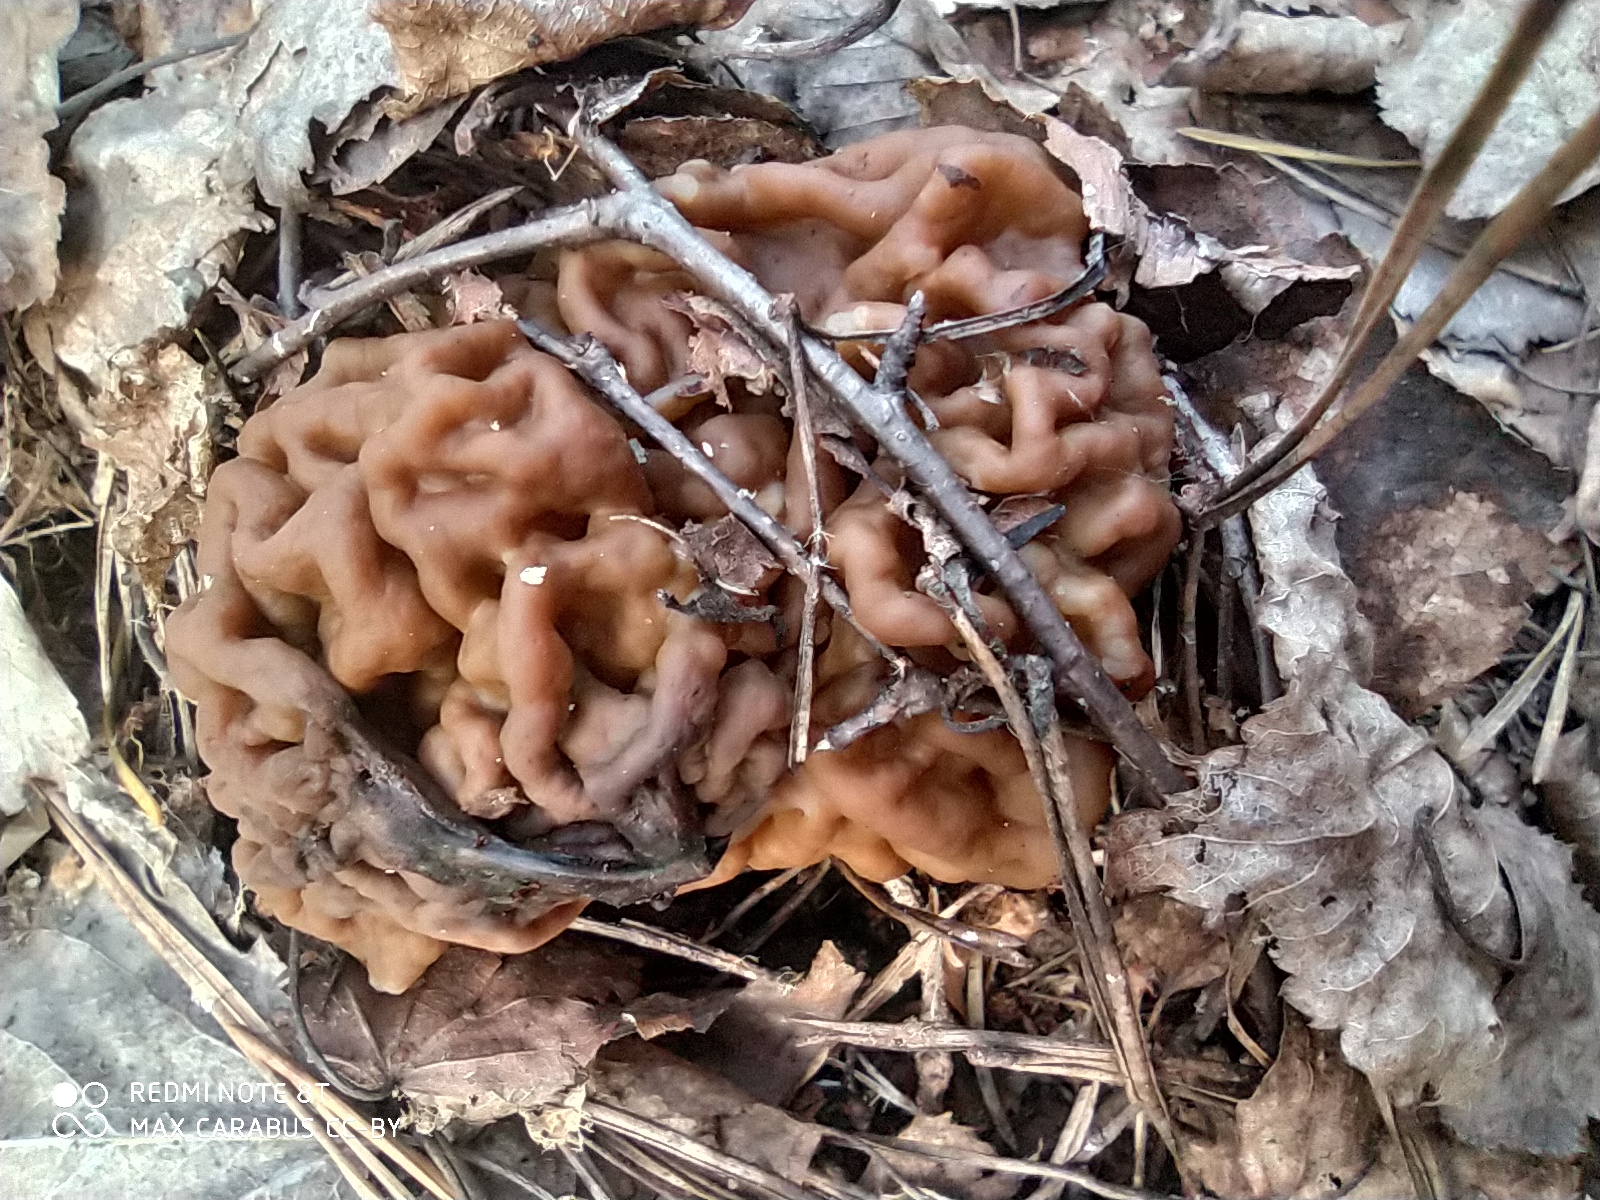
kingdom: Fungi
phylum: Ascomycota
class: Pezizomycetes
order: Pezizales
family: Discinaceae
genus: Gyromitra
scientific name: Gyromitra gigas
